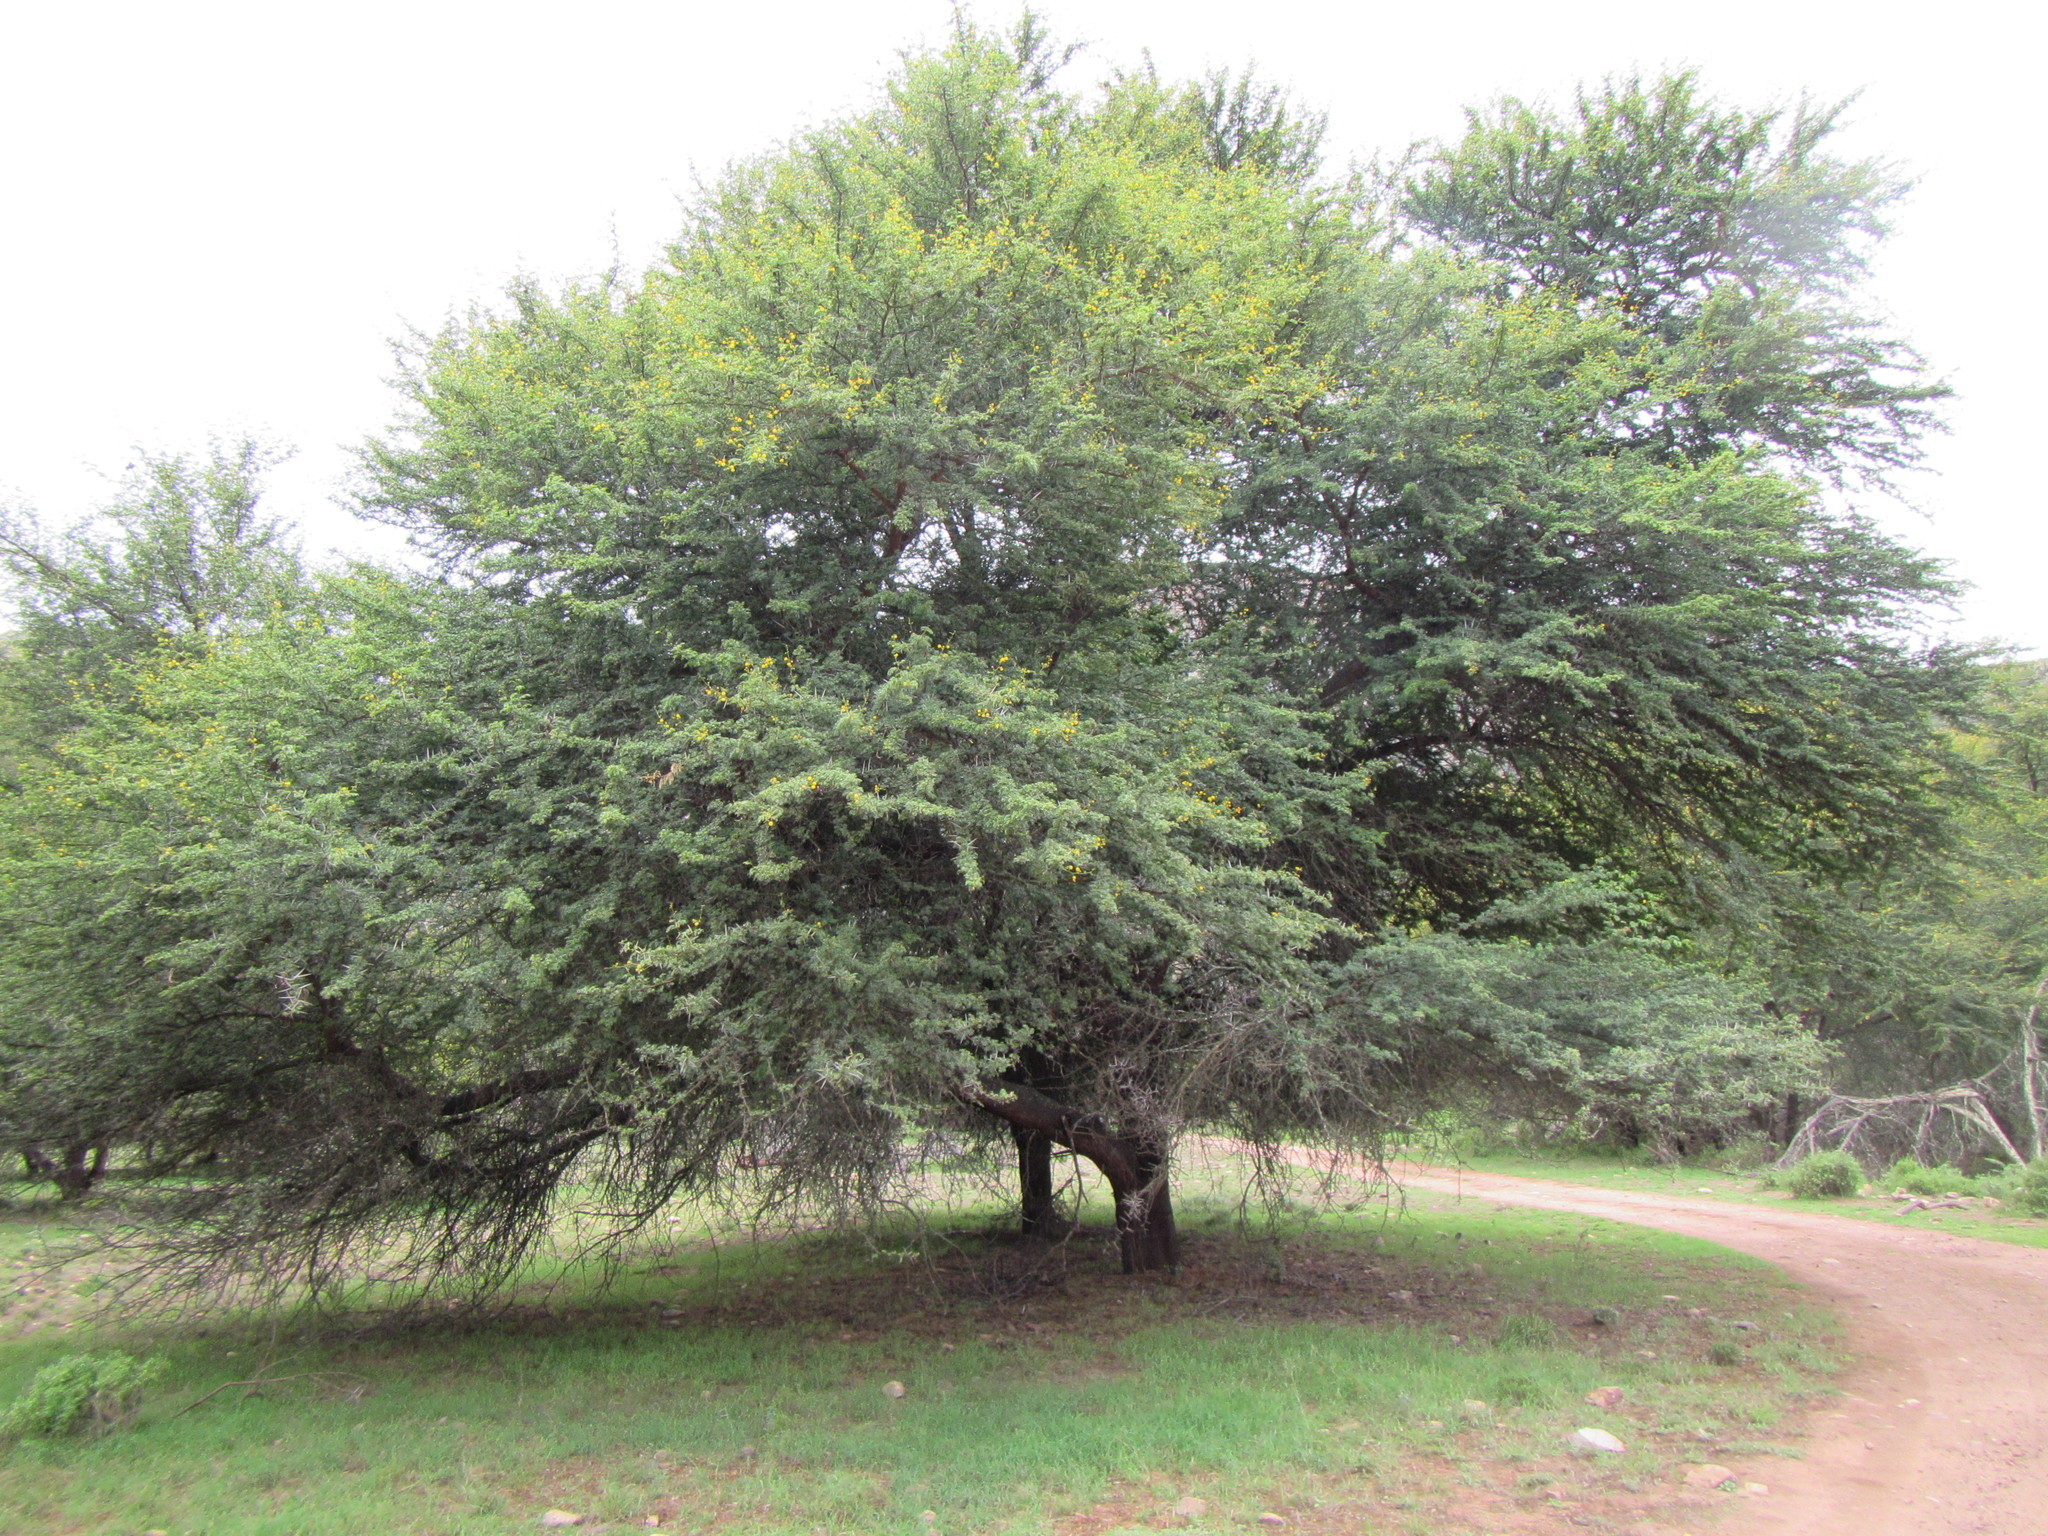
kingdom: Plantae
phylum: Tracheophyta
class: Magnoliopsida
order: Fabales
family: Fabaceae
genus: Vachellia
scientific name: Vachellia karroo
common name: Sweet thorn
